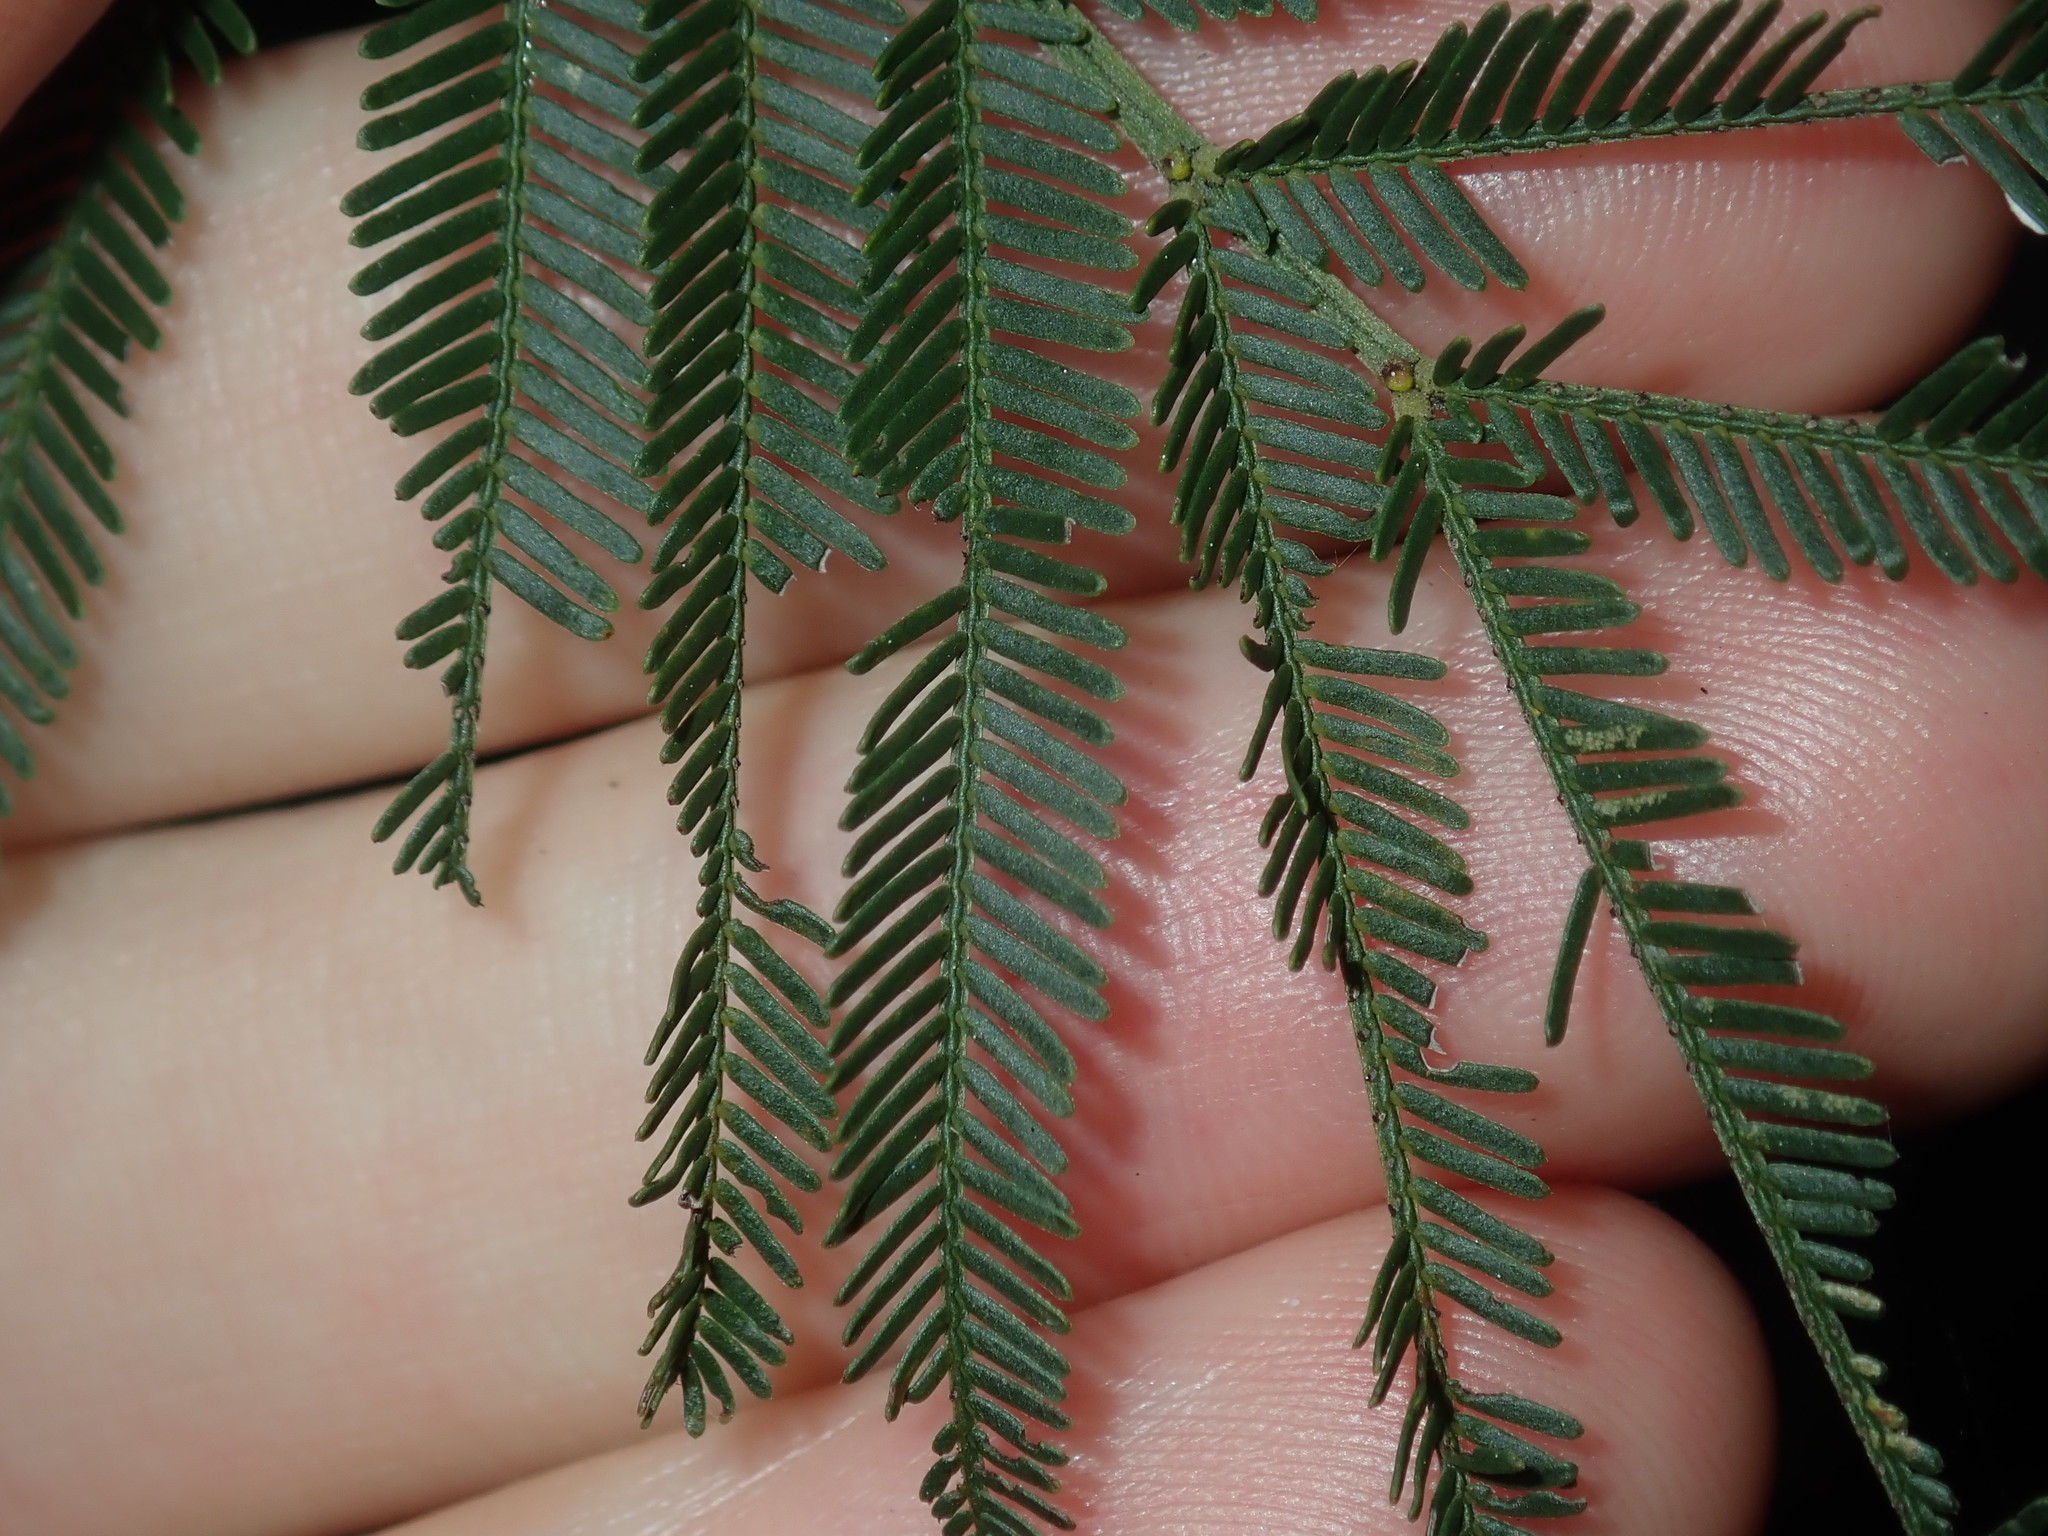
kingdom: Plantae
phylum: Tracheophyta
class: Magnoliopsida
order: Fabales
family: Fabaceae
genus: Acacia
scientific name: Acacia parramattensis
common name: Sydney green wattle
